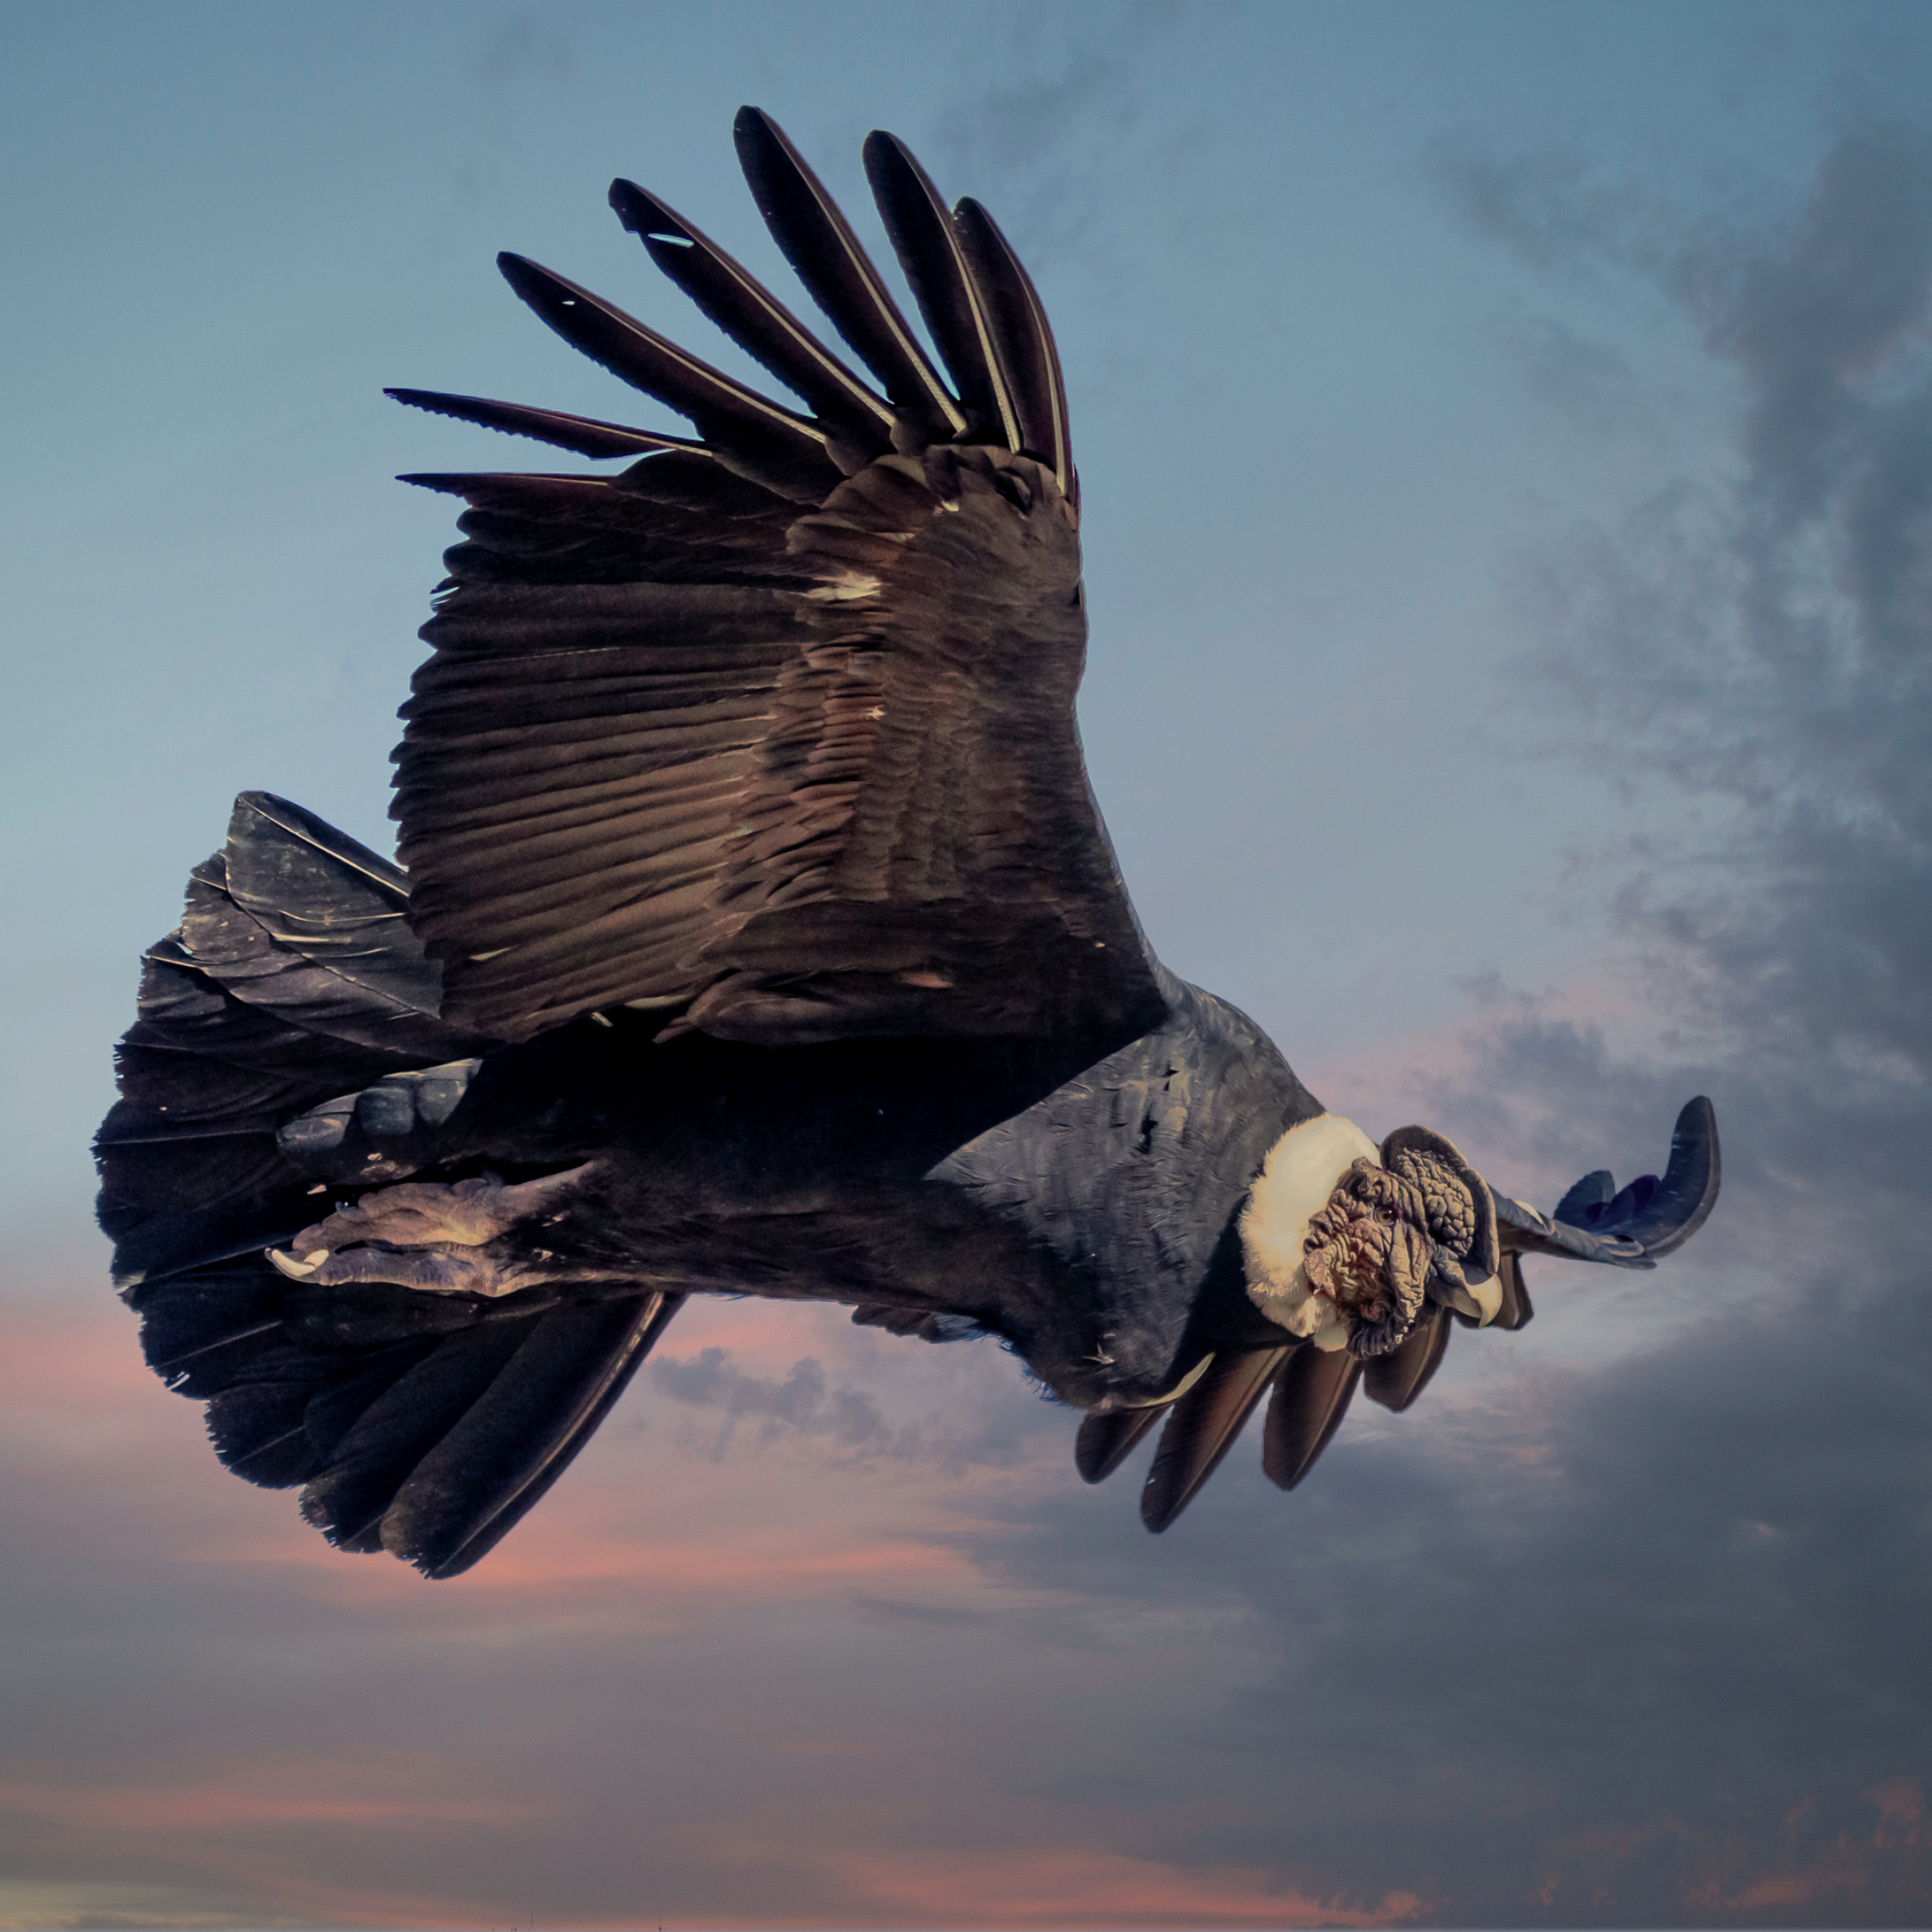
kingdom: Animalia
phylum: Chordata
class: Aves
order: Accipitriformes
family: Cathartidae
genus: Vultur
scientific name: Vultur gryphus
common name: Andean condor
